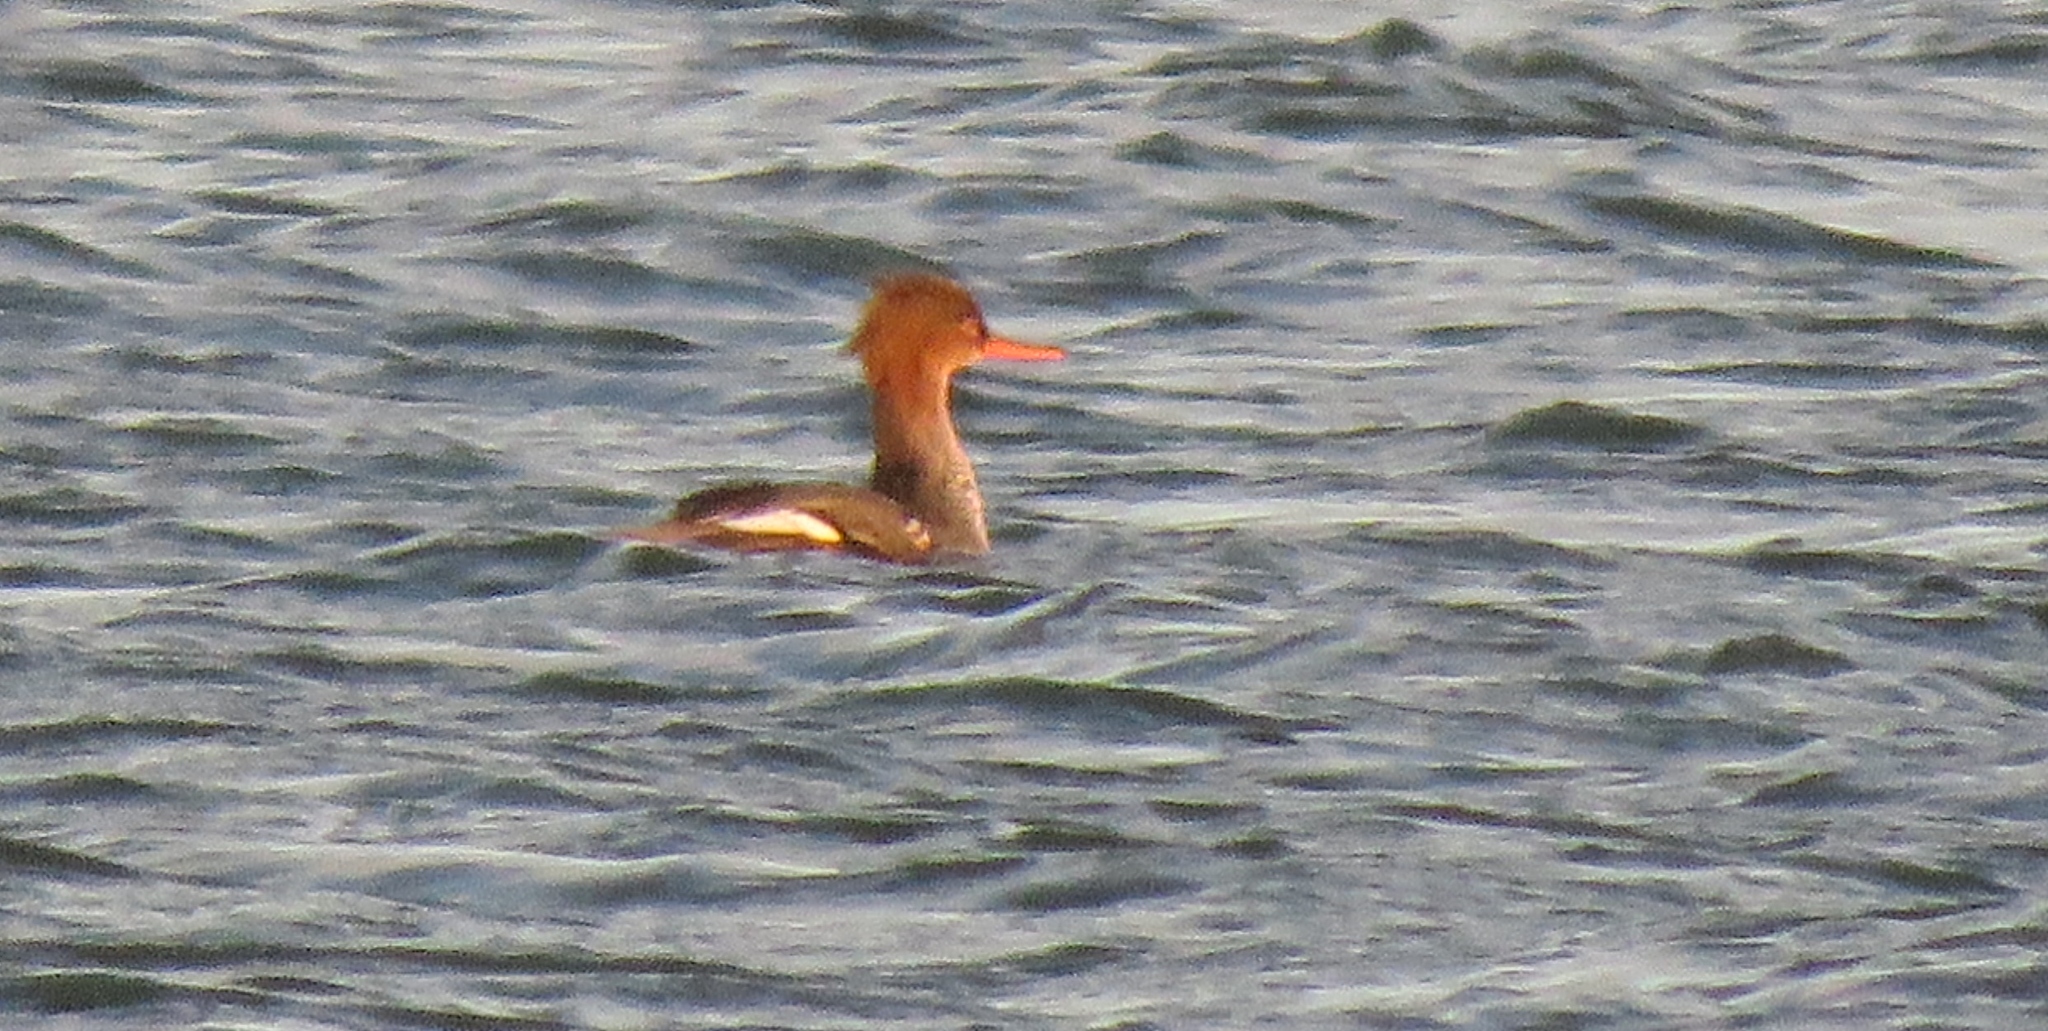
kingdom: Animalia
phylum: Chordata
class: Aves
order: Anseriformes
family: Anatidae
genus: Mergus
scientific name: Mergus serrator
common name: Red-breasted merganser
